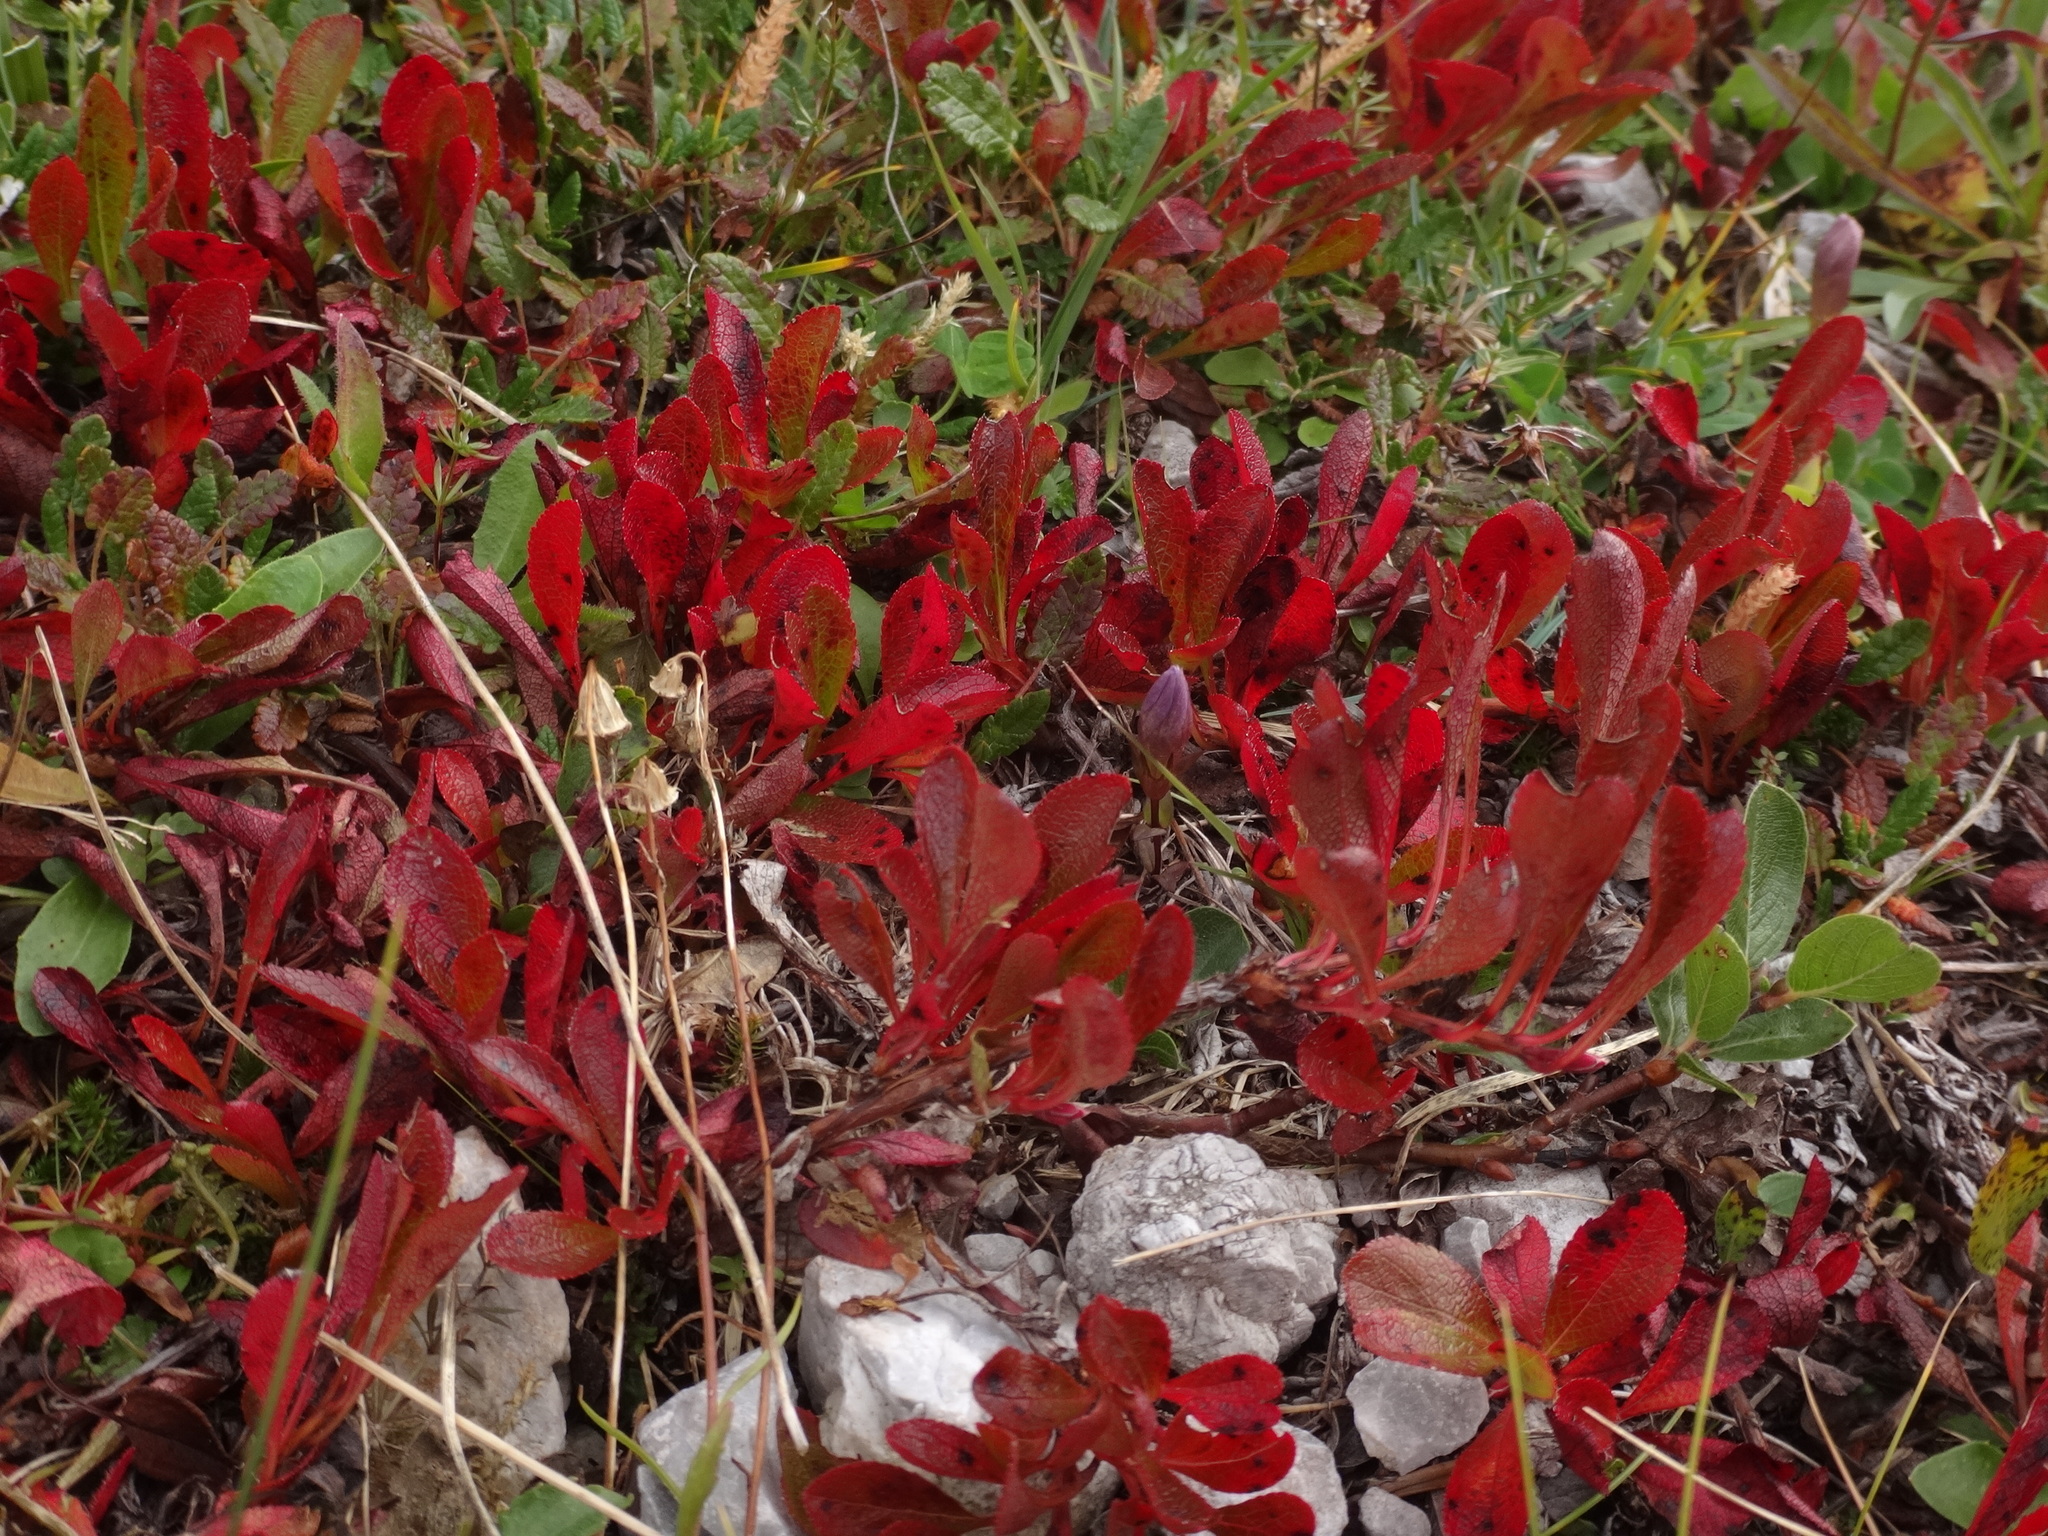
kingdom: Plantae
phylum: Tracheophyta
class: Magnoliopsida
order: Ericales
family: Ericaceae
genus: Arctostaphylos
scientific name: Arctostaphylos alpinus
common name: Alpine bearberry
